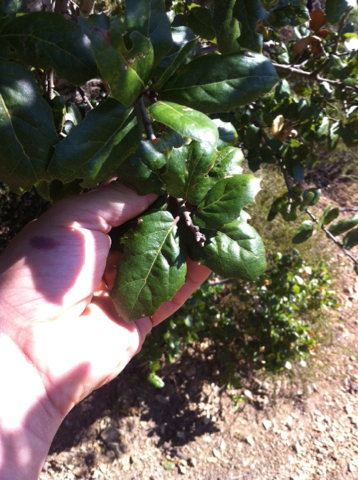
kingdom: Plantae
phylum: Tracheophyta
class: Magnoliopsida
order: Fagales
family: Fagaceae
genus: Quercus
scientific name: Quercus agrifolia
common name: California live oak
